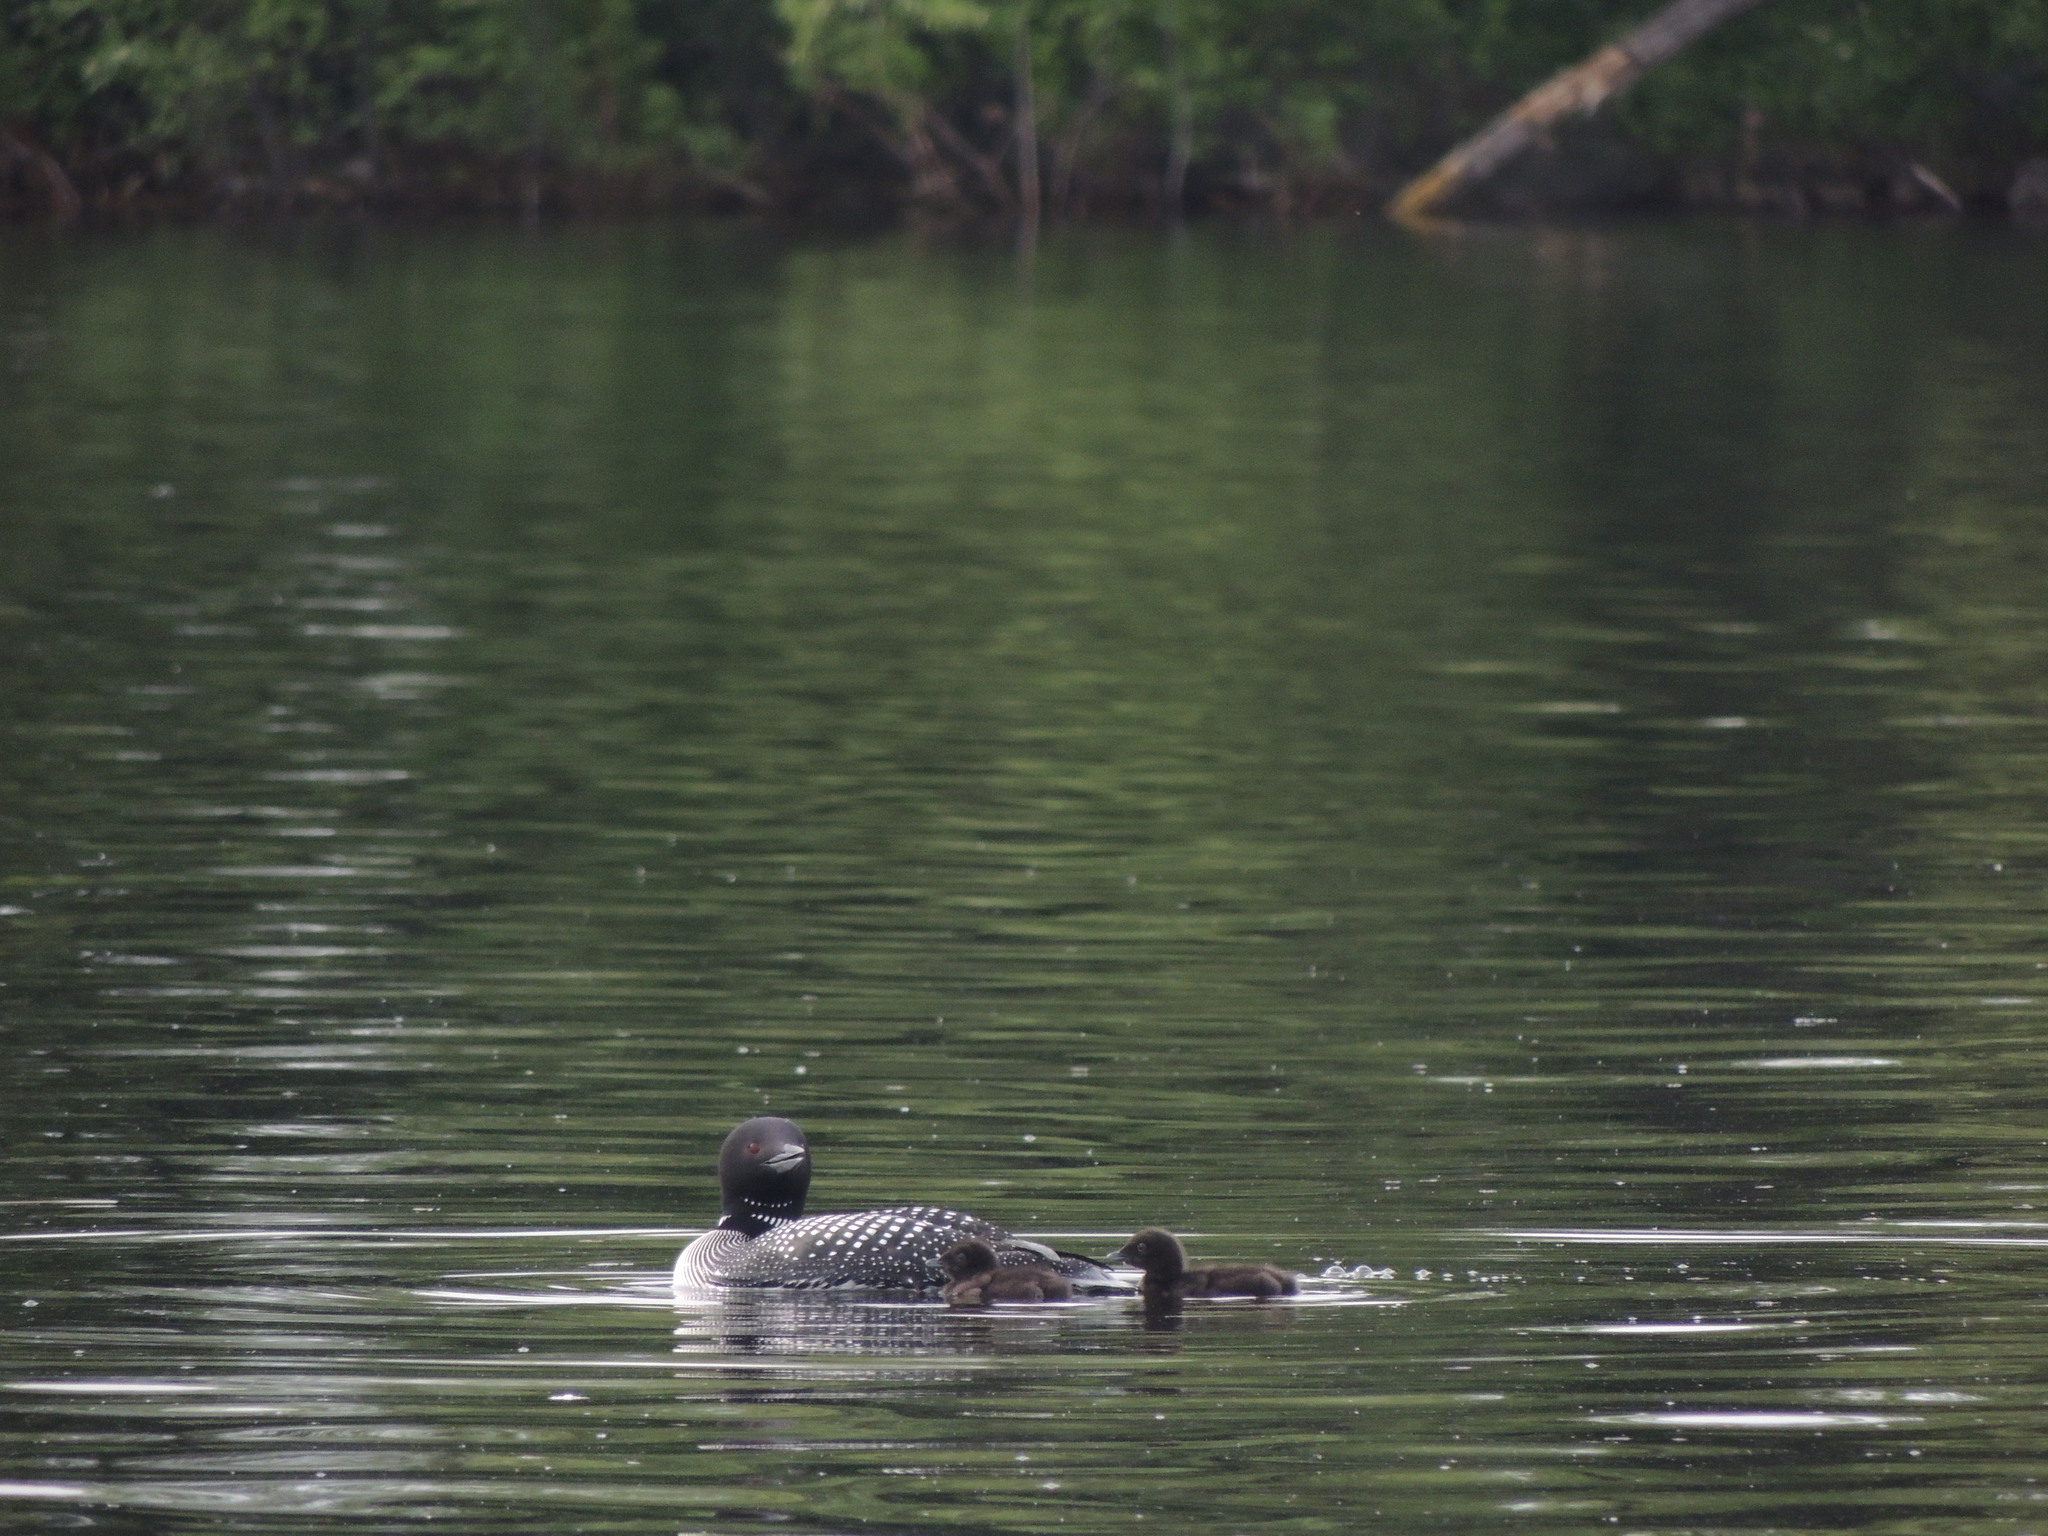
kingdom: Animalia
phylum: Chordata
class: Aves
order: Gaviiformes
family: Gaviidae
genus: Gavia
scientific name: Gavia immer
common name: Common loon
